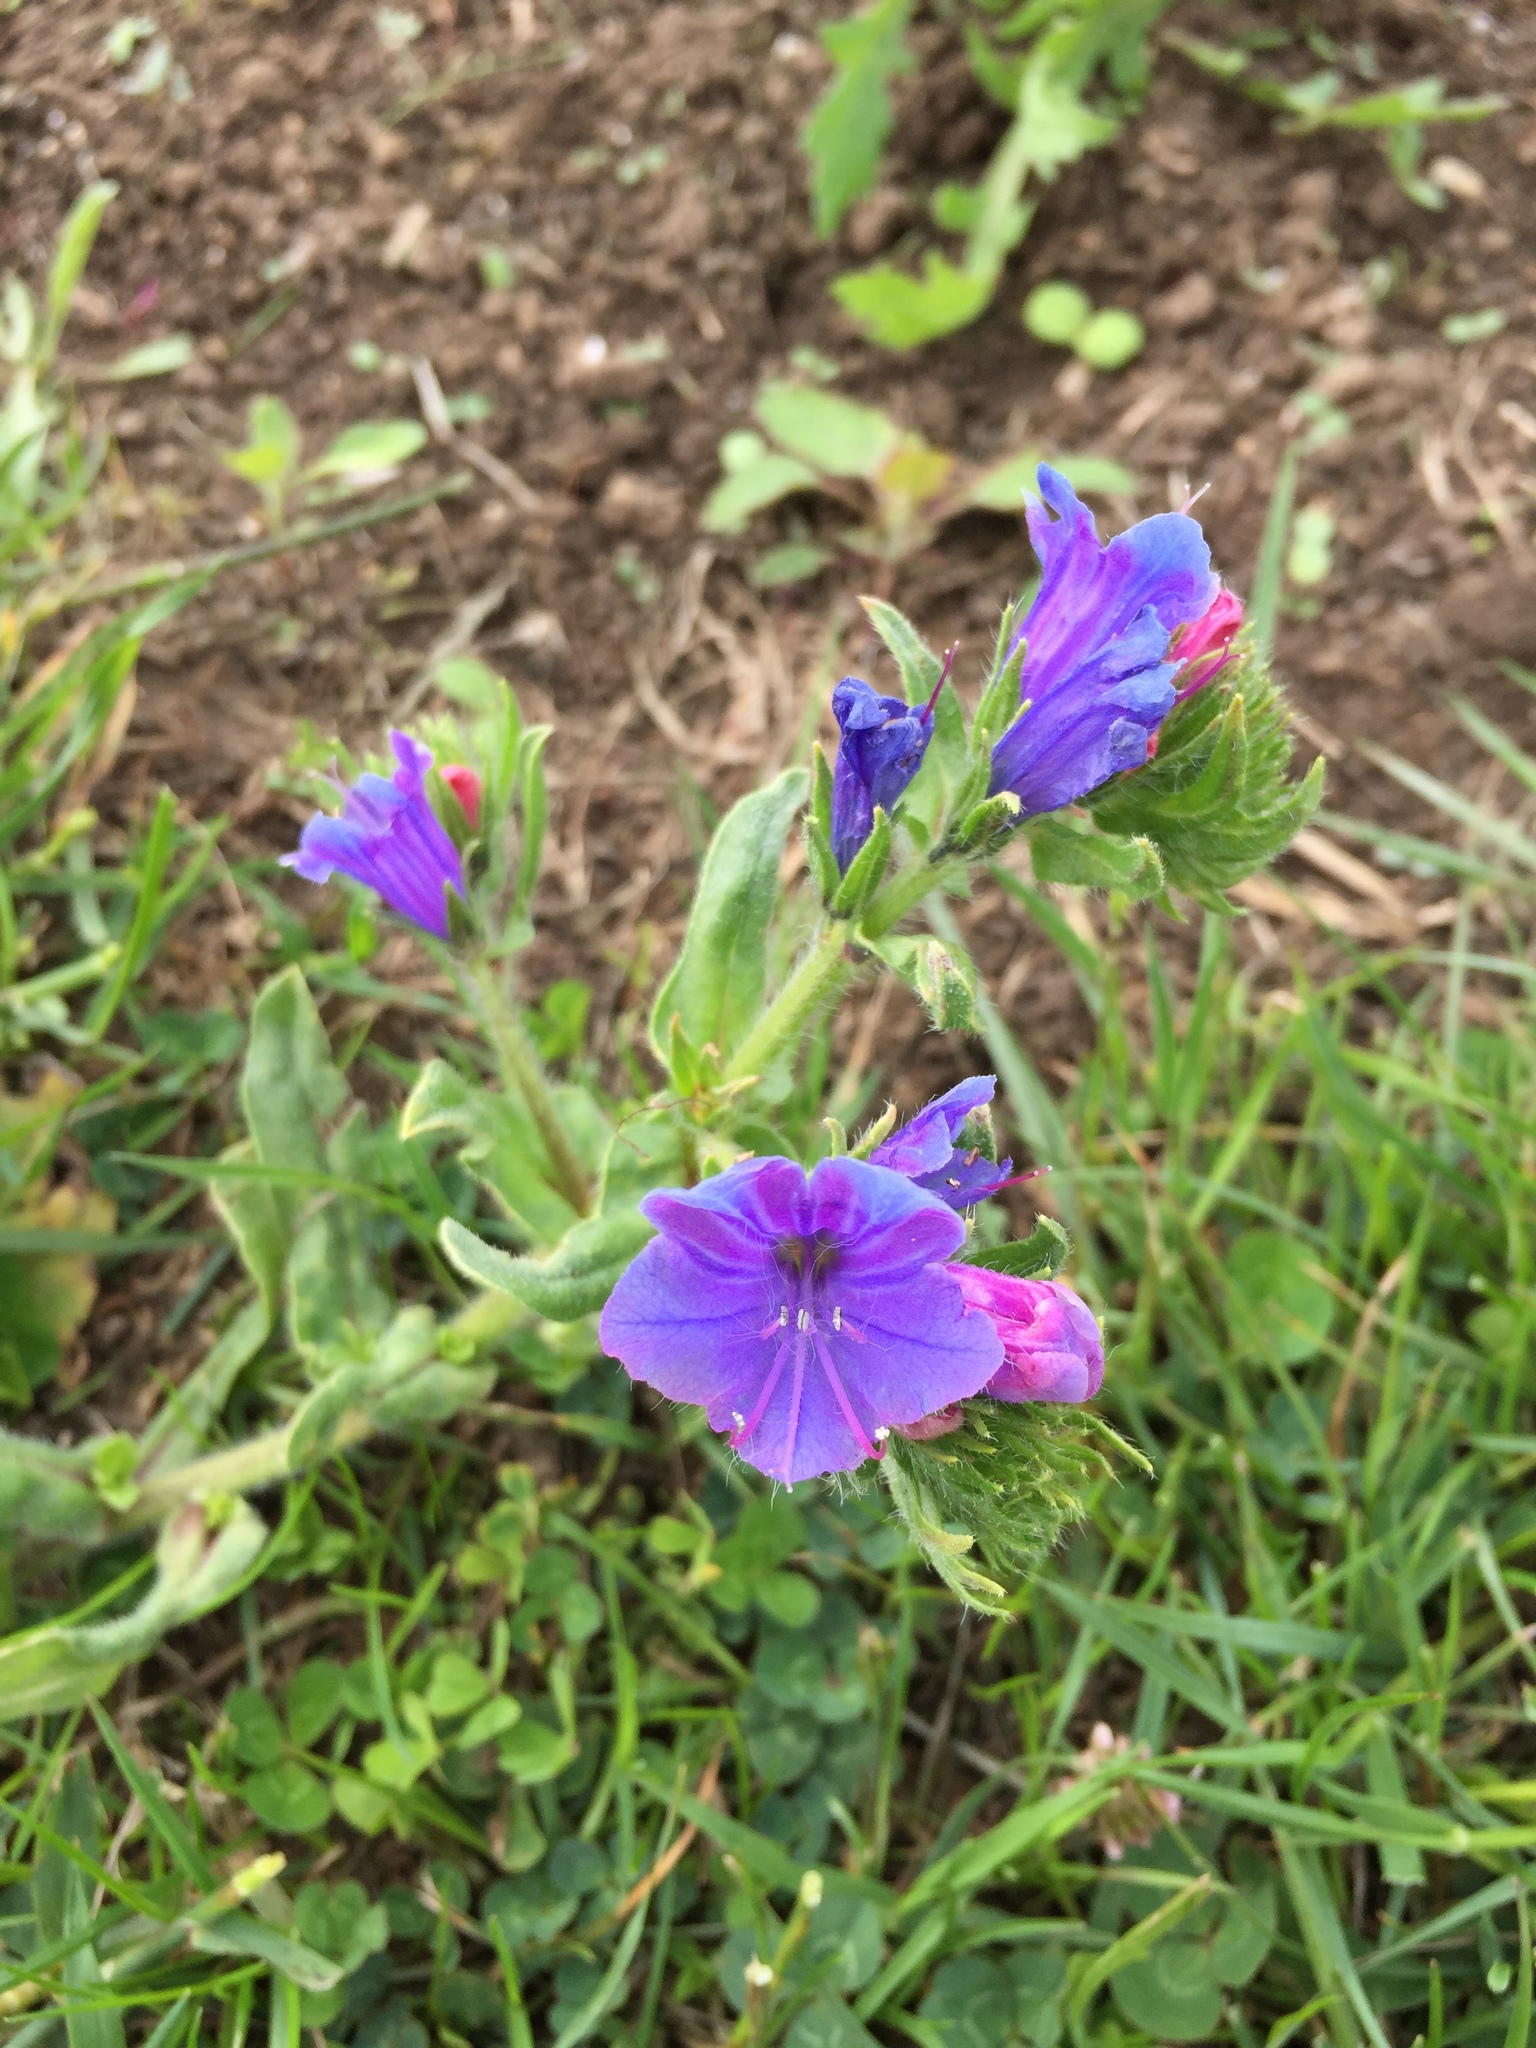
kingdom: Plantae
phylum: Tracheophyta
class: Magnoliopsida
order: Boraginales
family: Boraginaceae
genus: Echium
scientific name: Echium vulgare
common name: Common viper's bugloss
